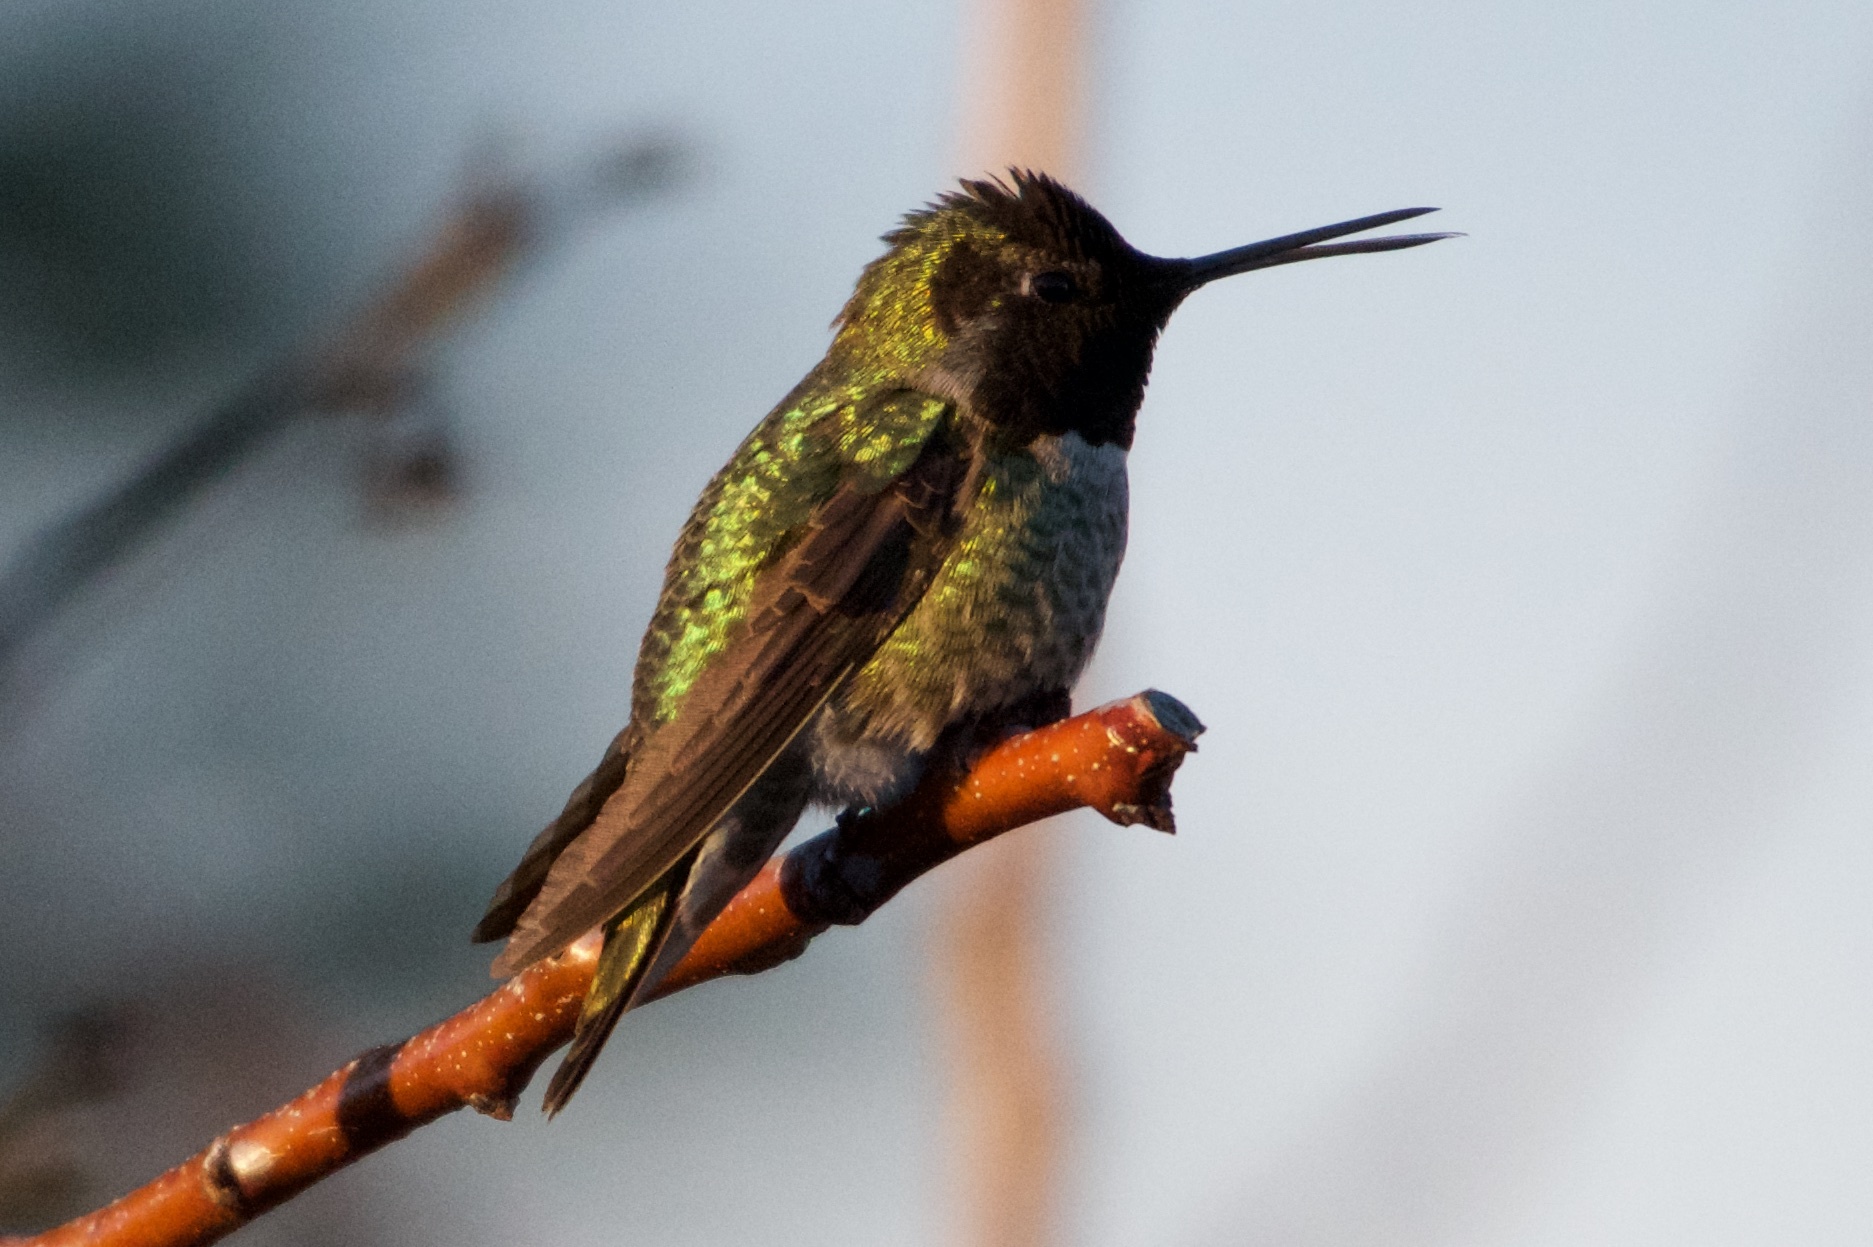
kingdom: Animalia
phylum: Chordata
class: Aves
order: Apodiformes
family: Trochilidae
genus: Calypte
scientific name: Calypte anna
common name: Anna's hummingbird
